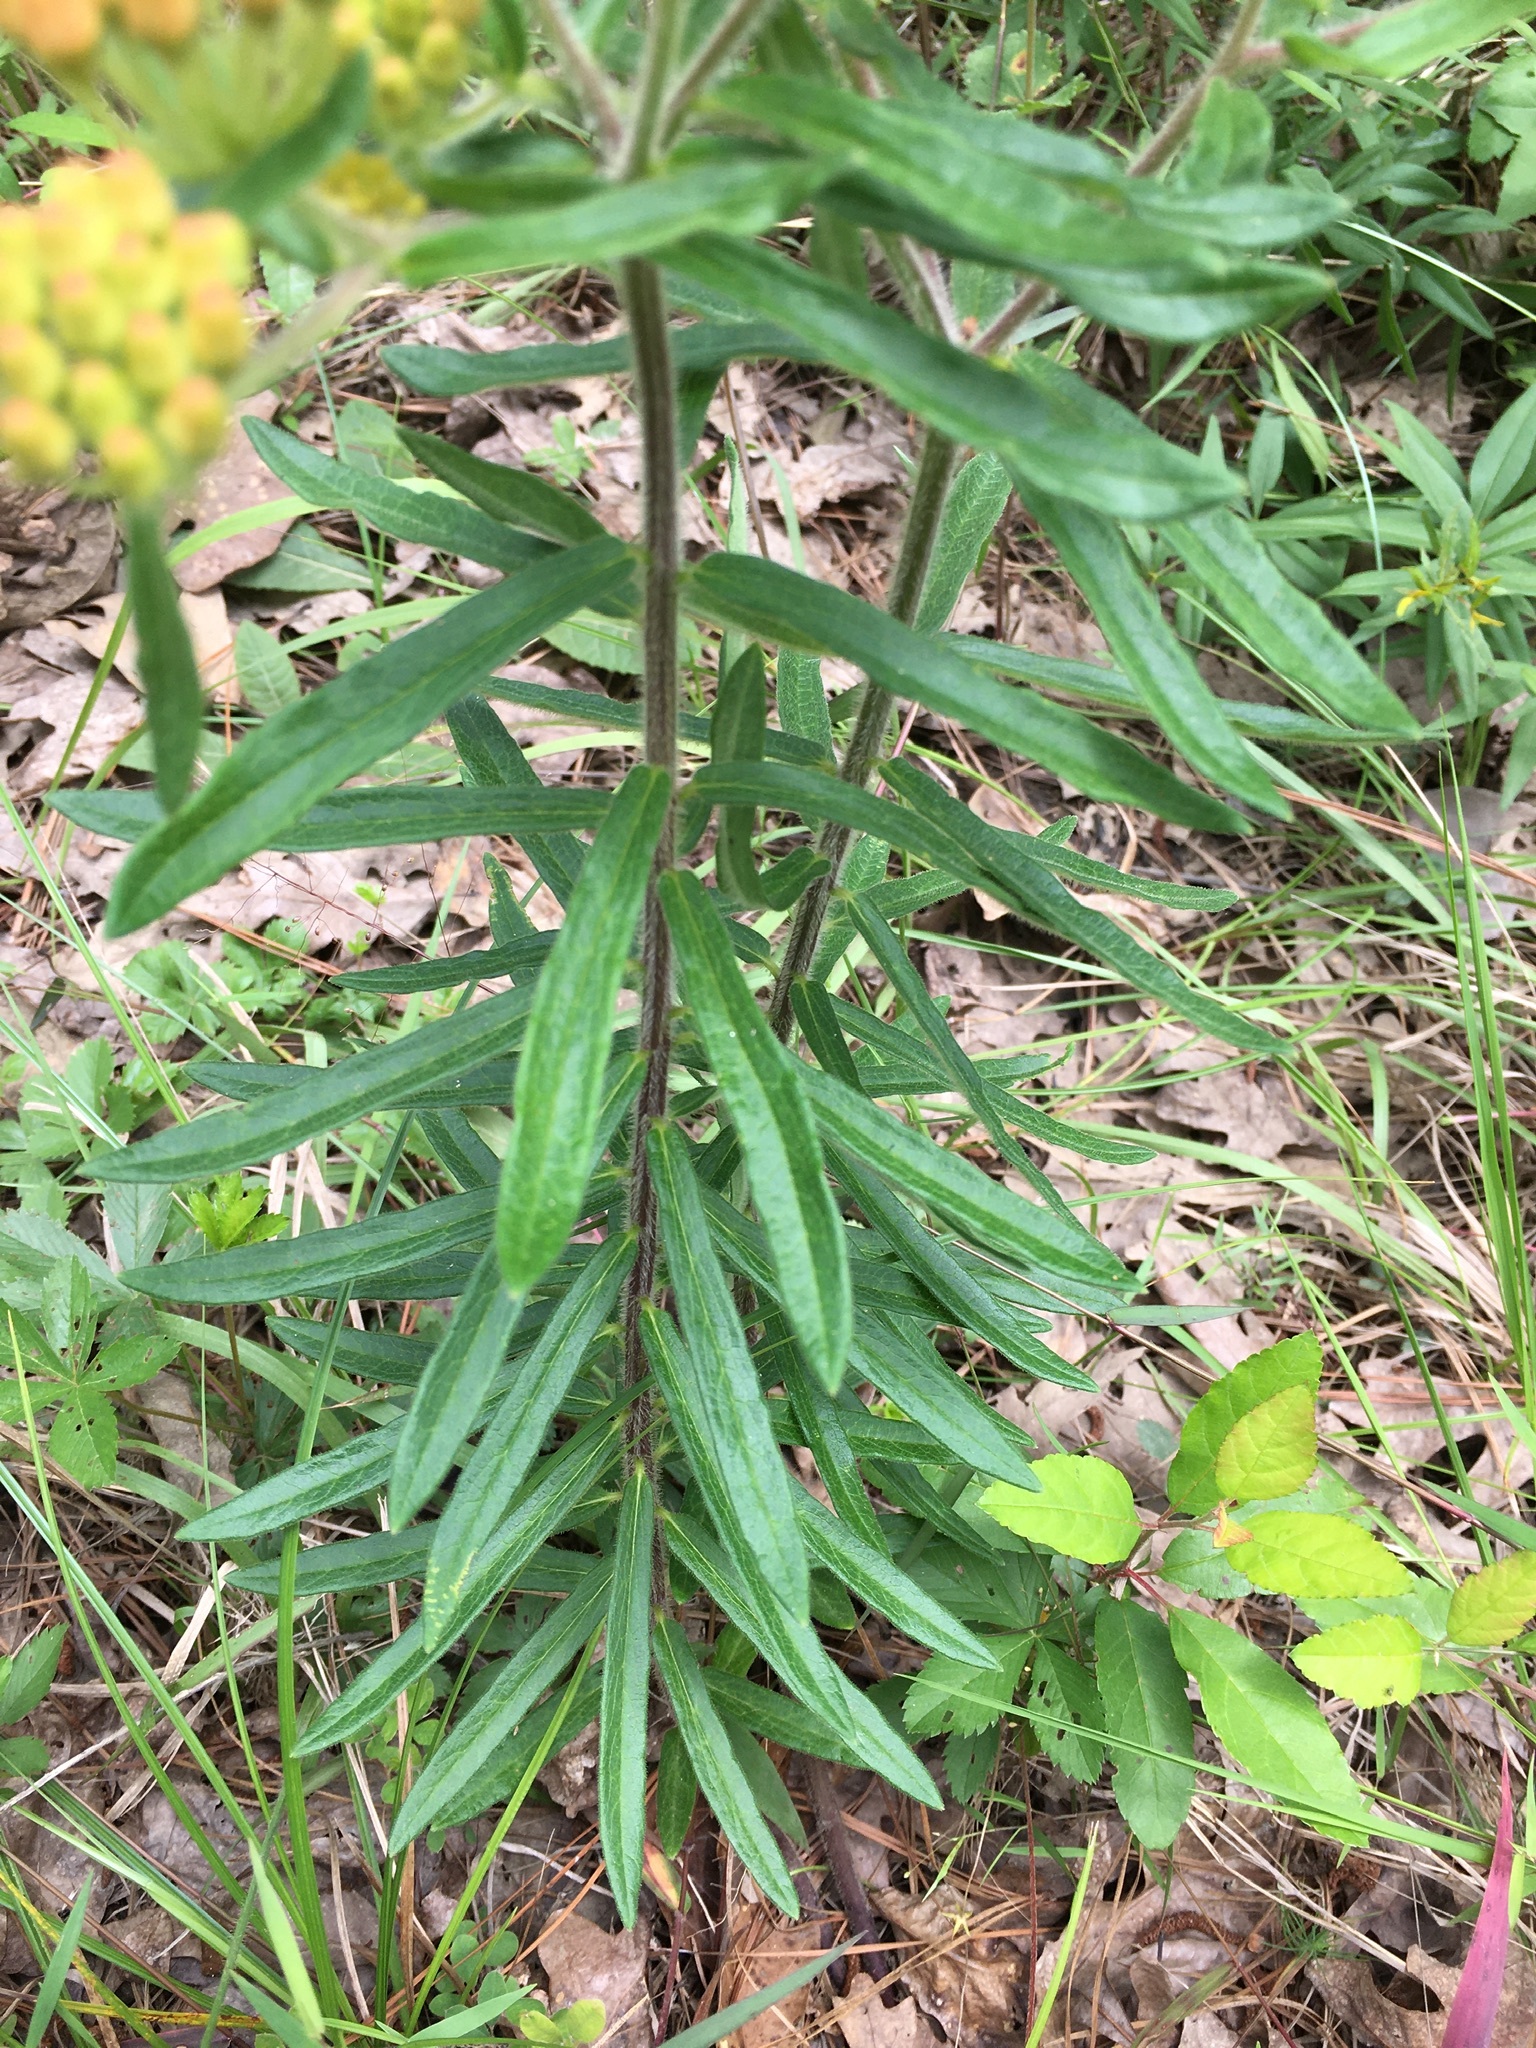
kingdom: Plantae
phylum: Tracheophyta
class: Magnoliopsida
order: Gentianales
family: Apocynaceae
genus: Asclepias
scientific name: Asclepias tuberosa
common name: Butterfly milkweed
